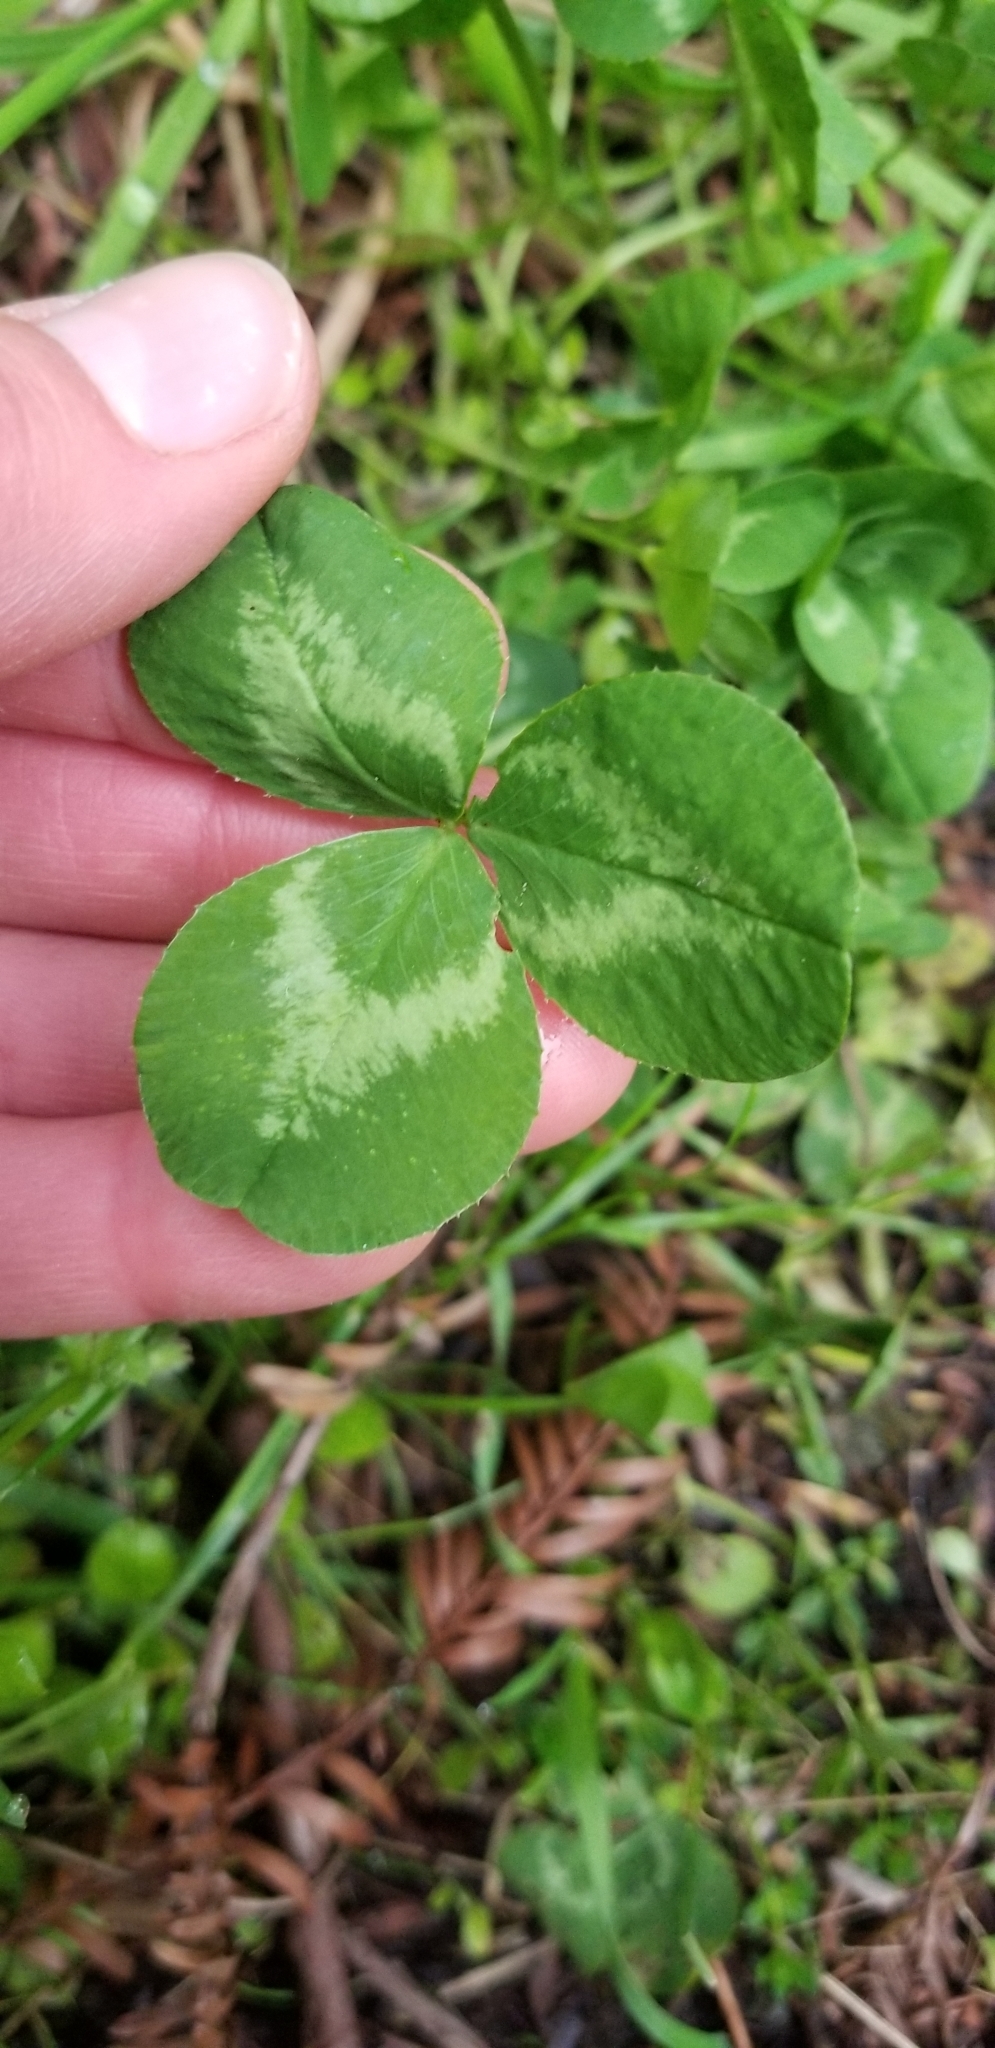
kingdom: Plantae
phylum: Tracheophyta
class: Magnoliopsida
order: Fabales
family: Fabaceae
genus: Trifolium
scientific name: Trifolium repens
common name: White clover
